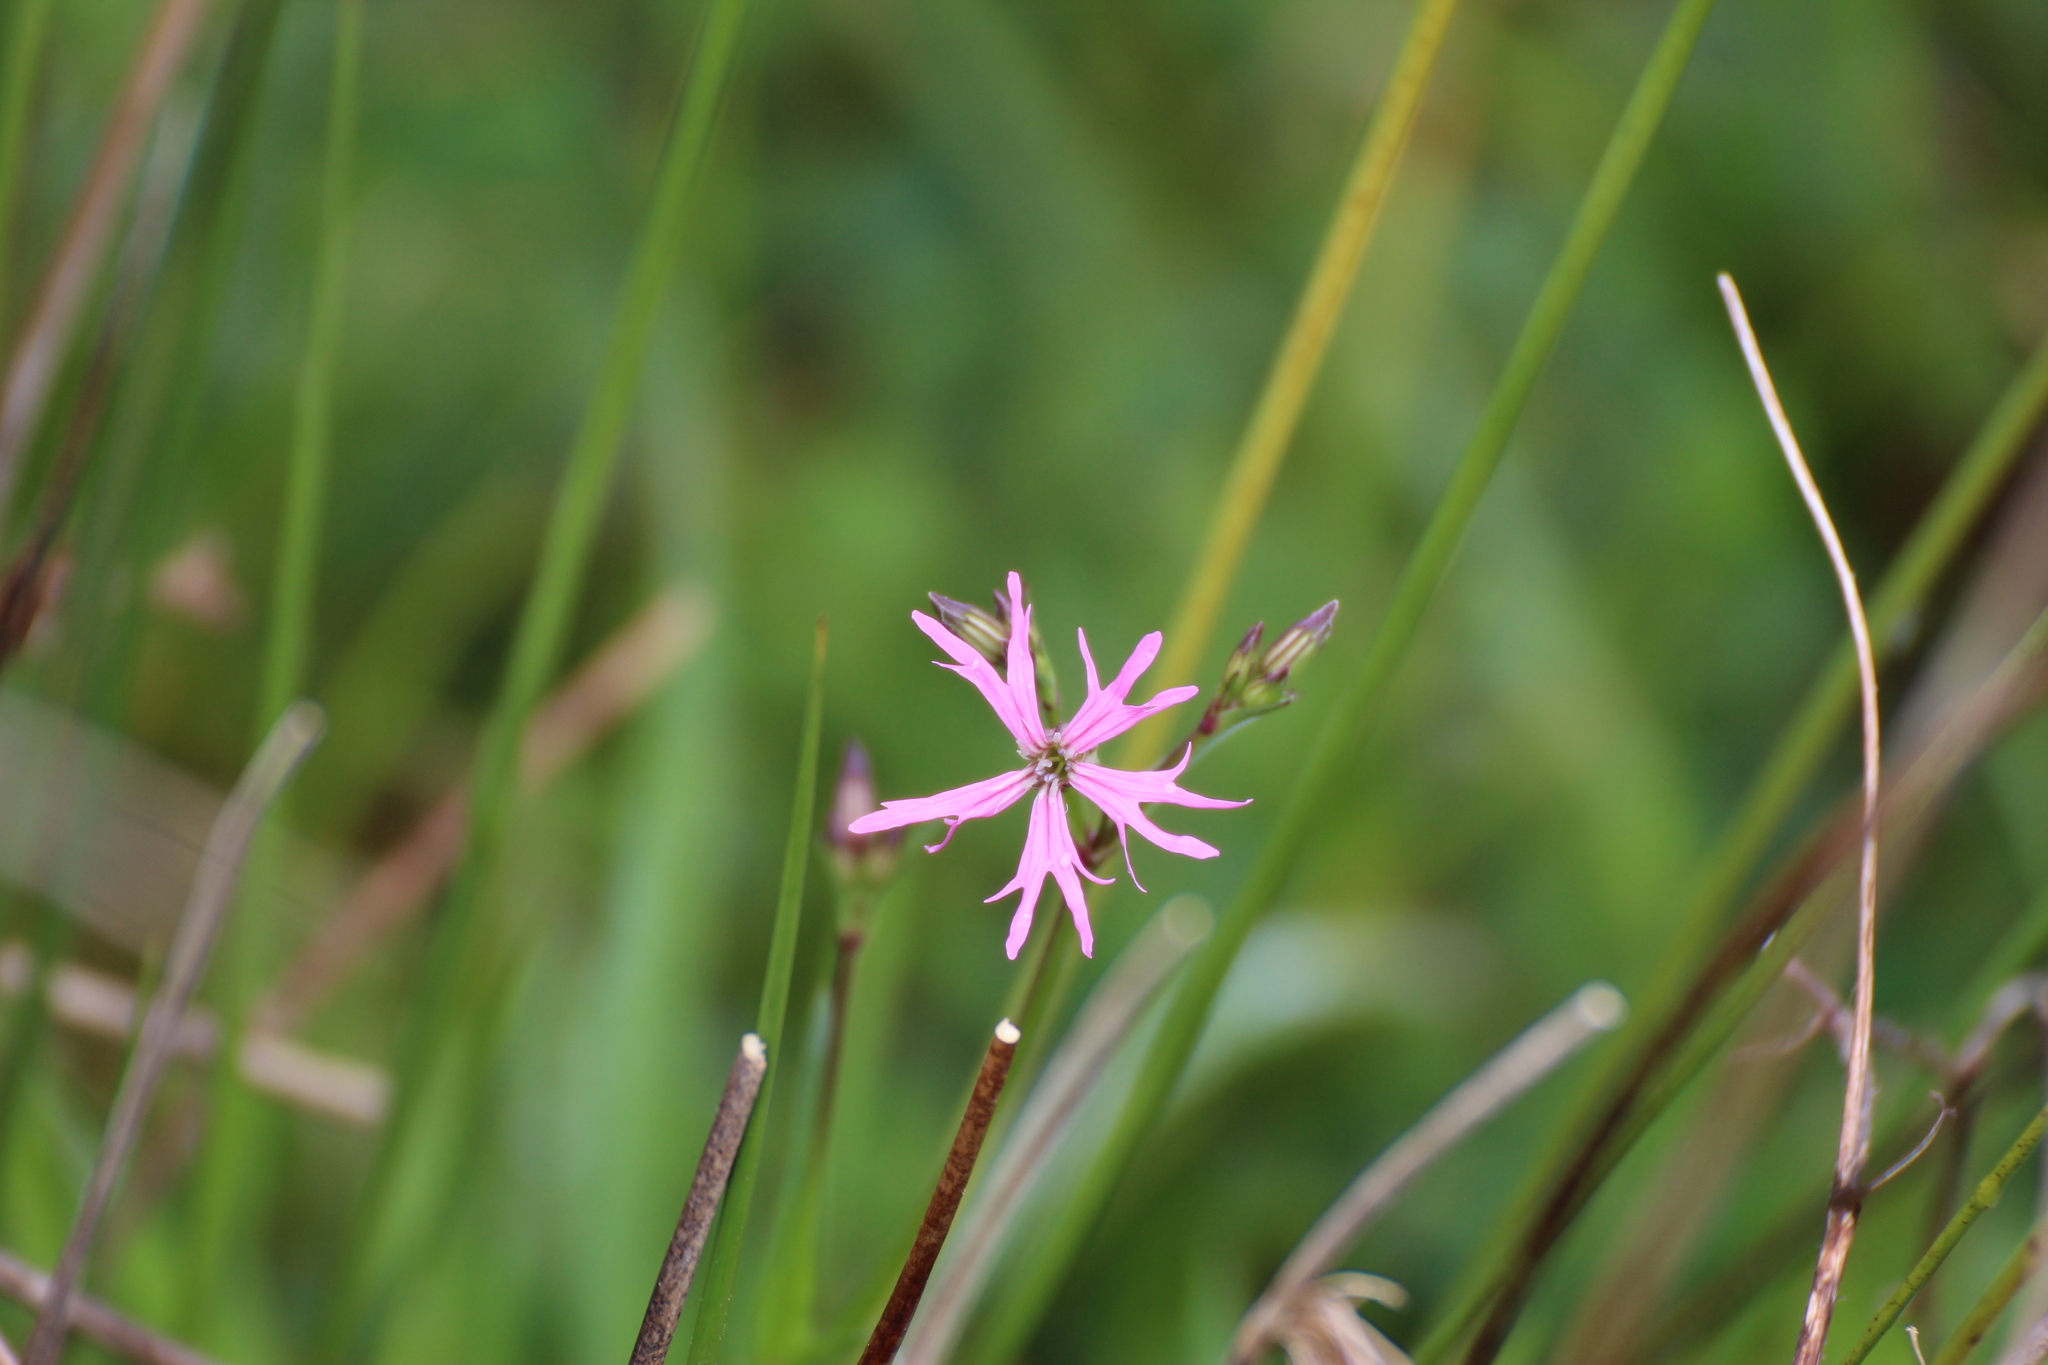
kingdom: Plantae
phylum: Tracheophyta
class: Magnoliopsida
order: Caryophyllales
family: Caryophyllaceae
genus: Silene
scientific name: Silene flos-cuculi
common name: Ragged-robin
